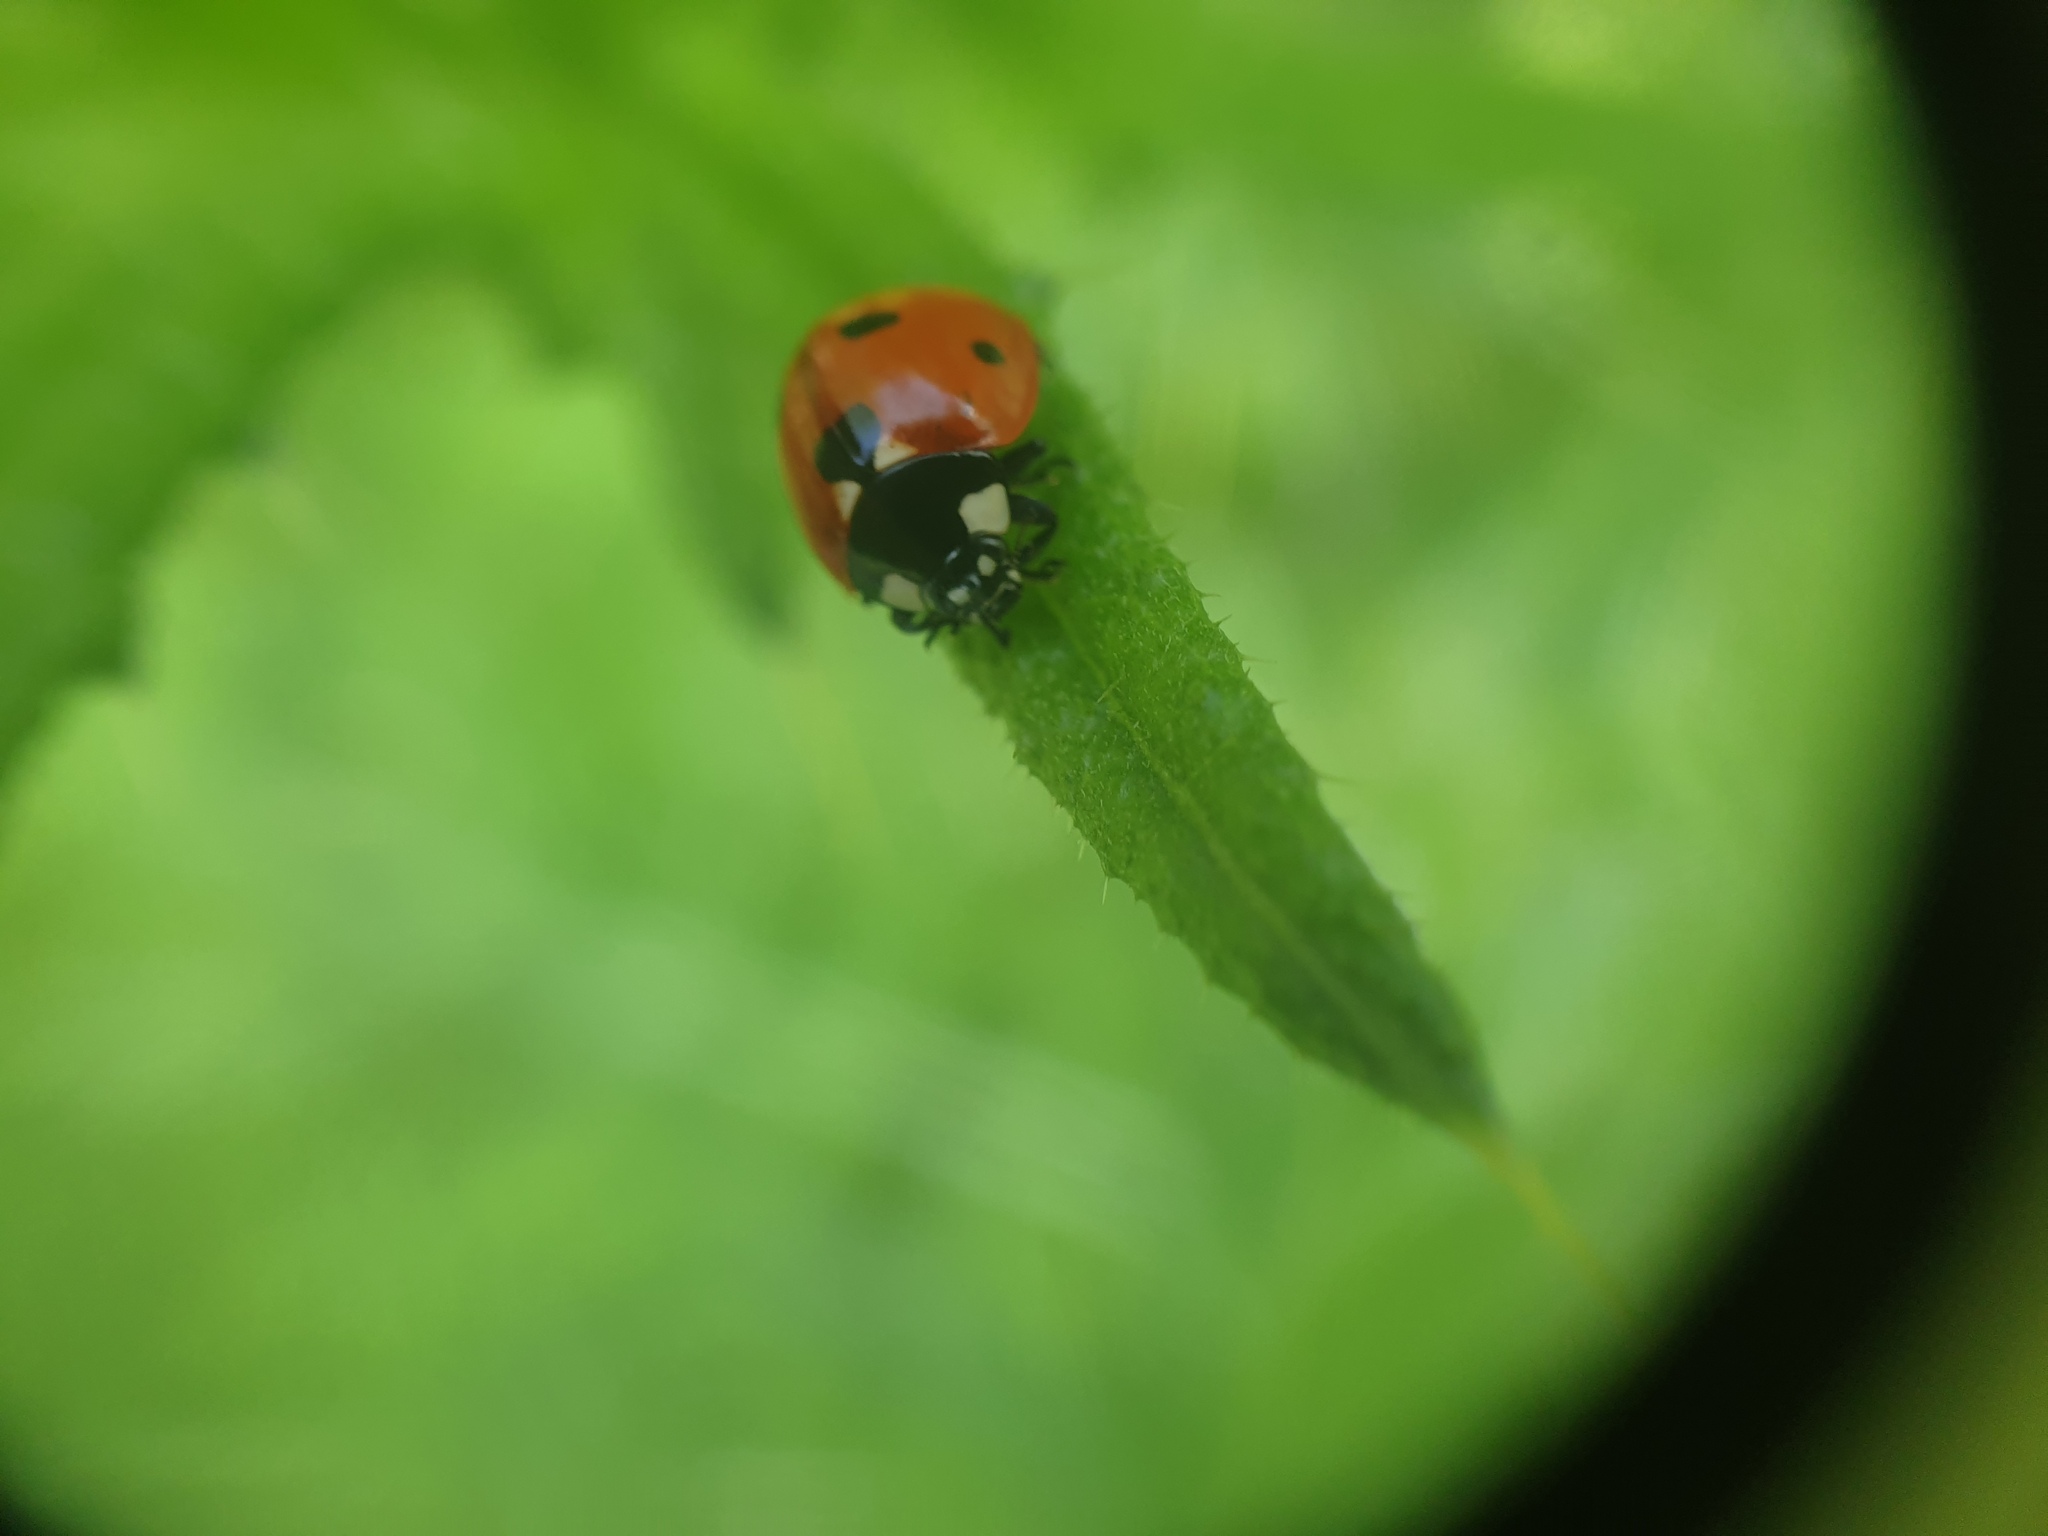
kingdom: Animalia
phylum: Arthropoda
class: Insecta
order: Coleoptera
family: Coccinellidae
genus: Coccinella
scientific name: Coccinella septempunctata
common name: Sevenspotted lady beetle
